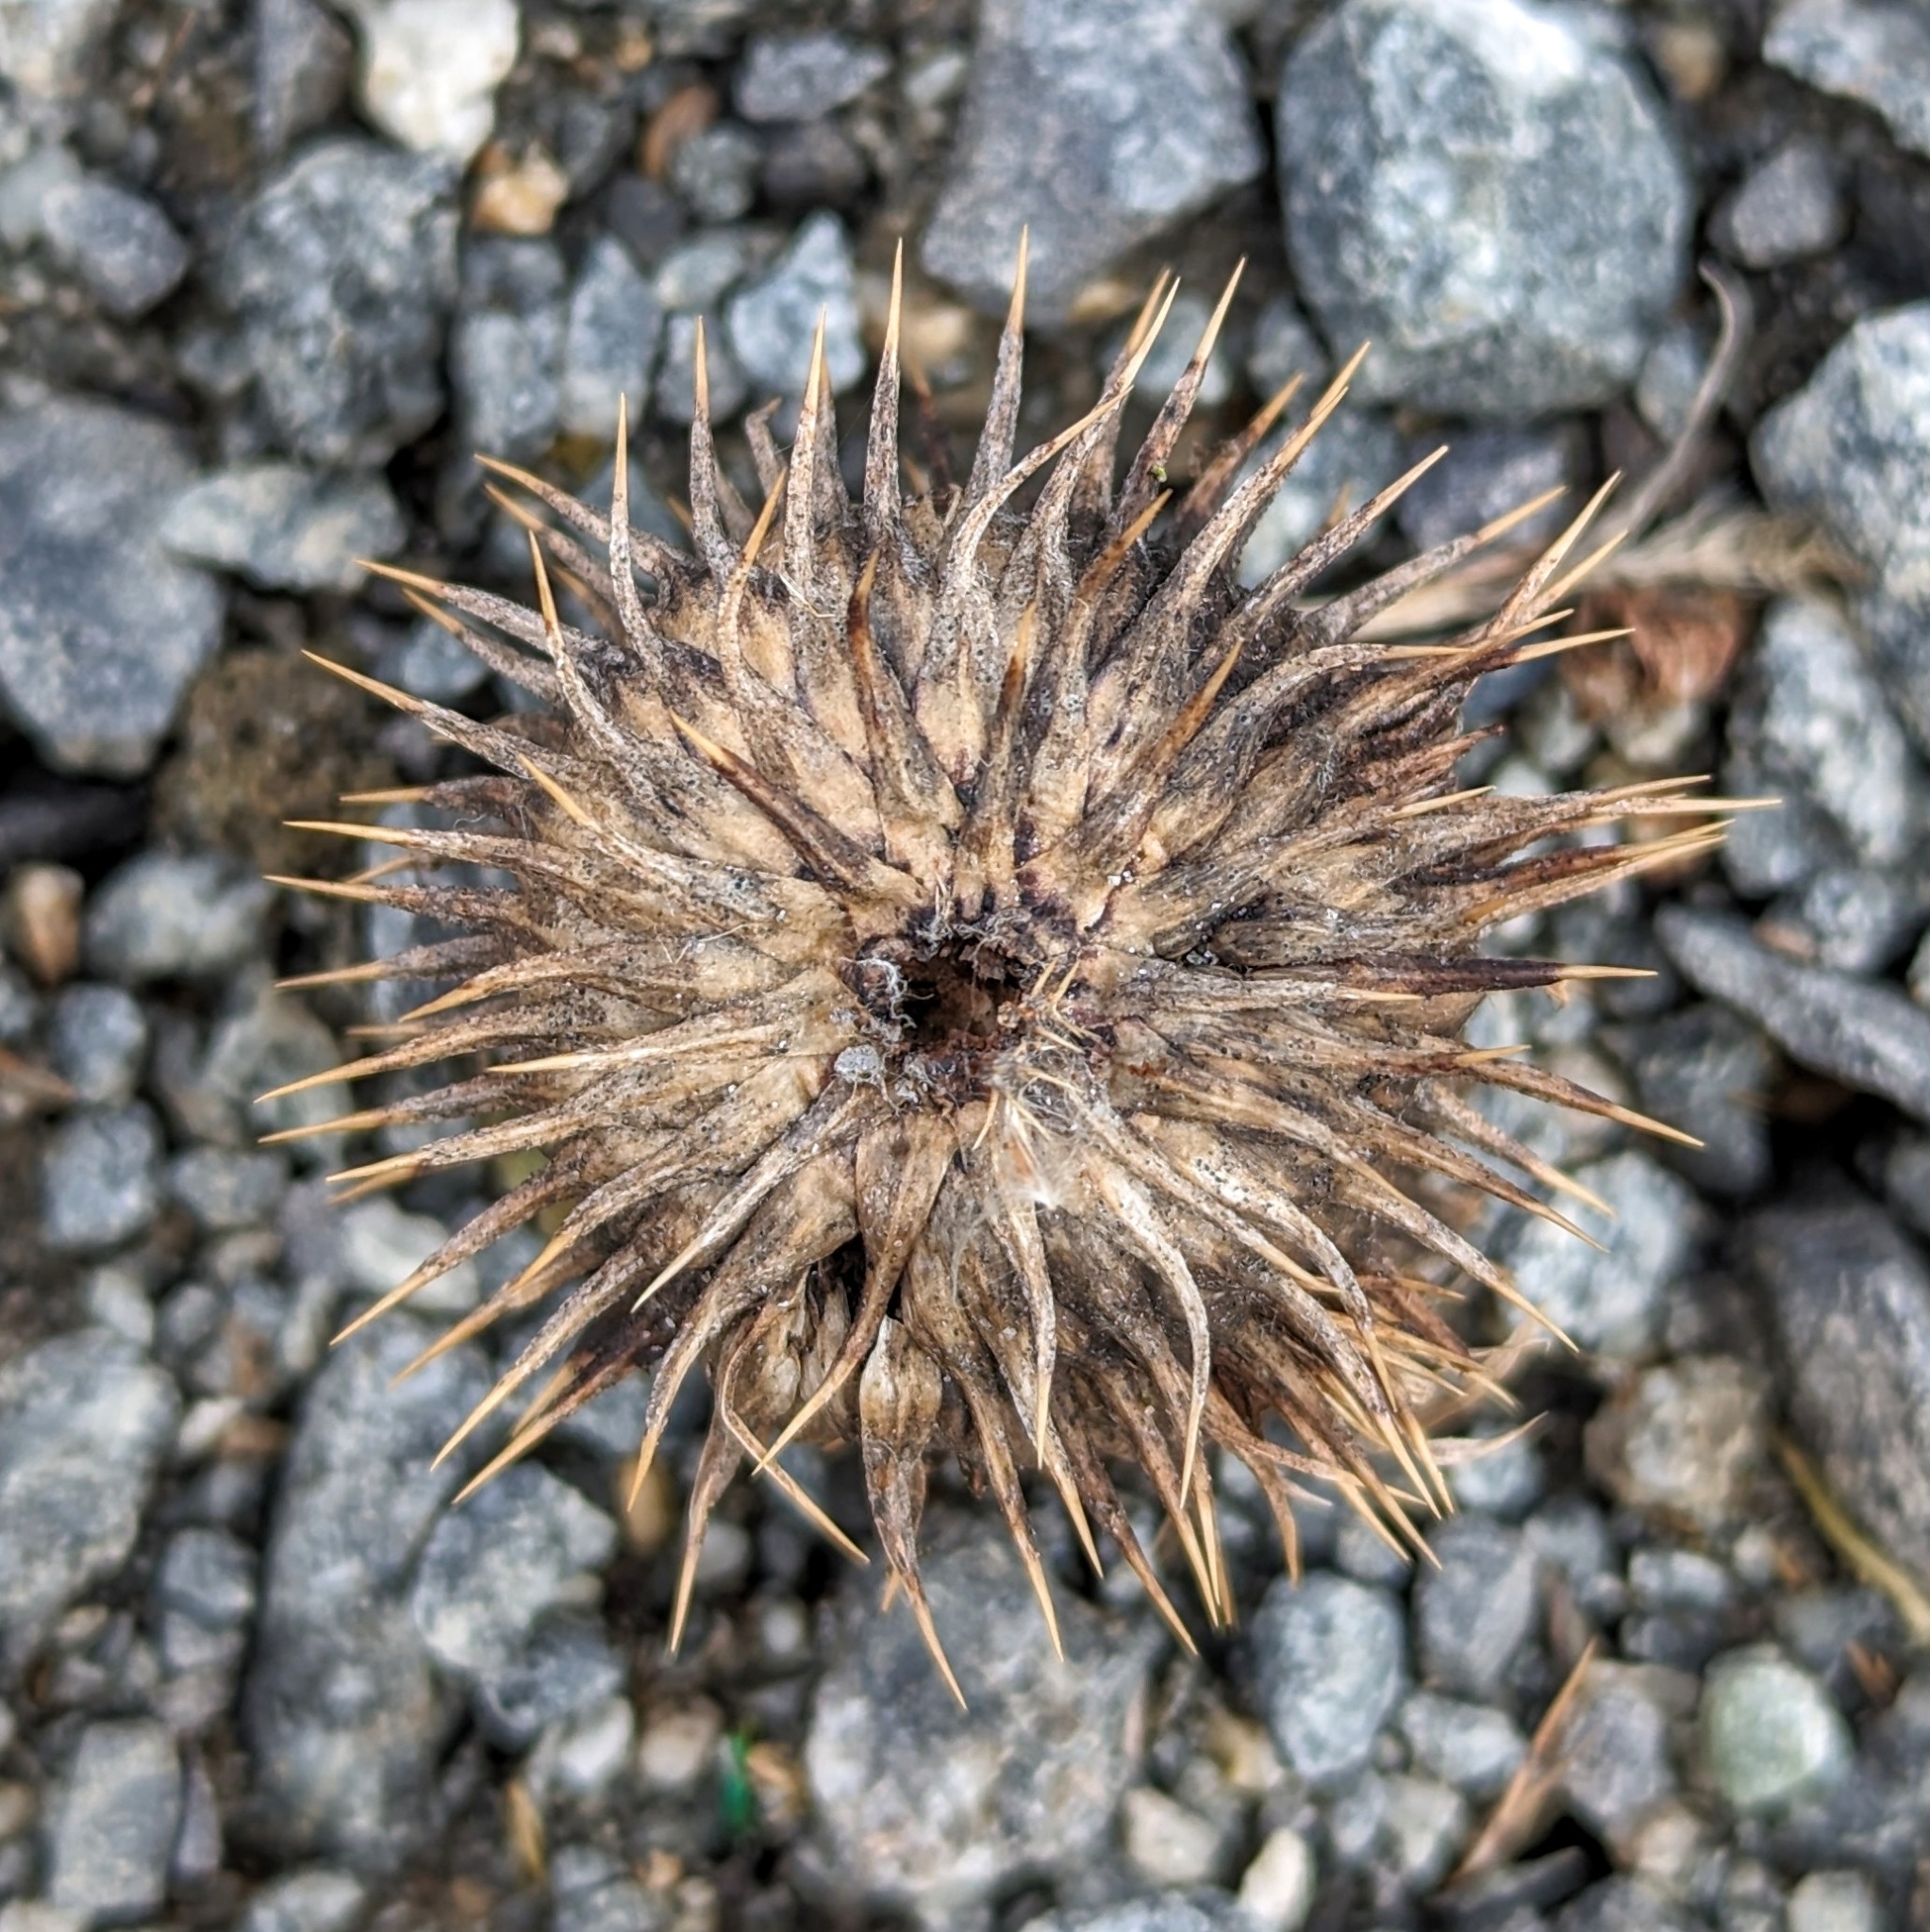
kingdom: Plantae
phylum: Tracheophyta
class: Magnoliopsida
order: Asterales
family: Asteraceae
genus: Cirsium
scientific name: Cirsium vulgare
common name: Bull thistle
